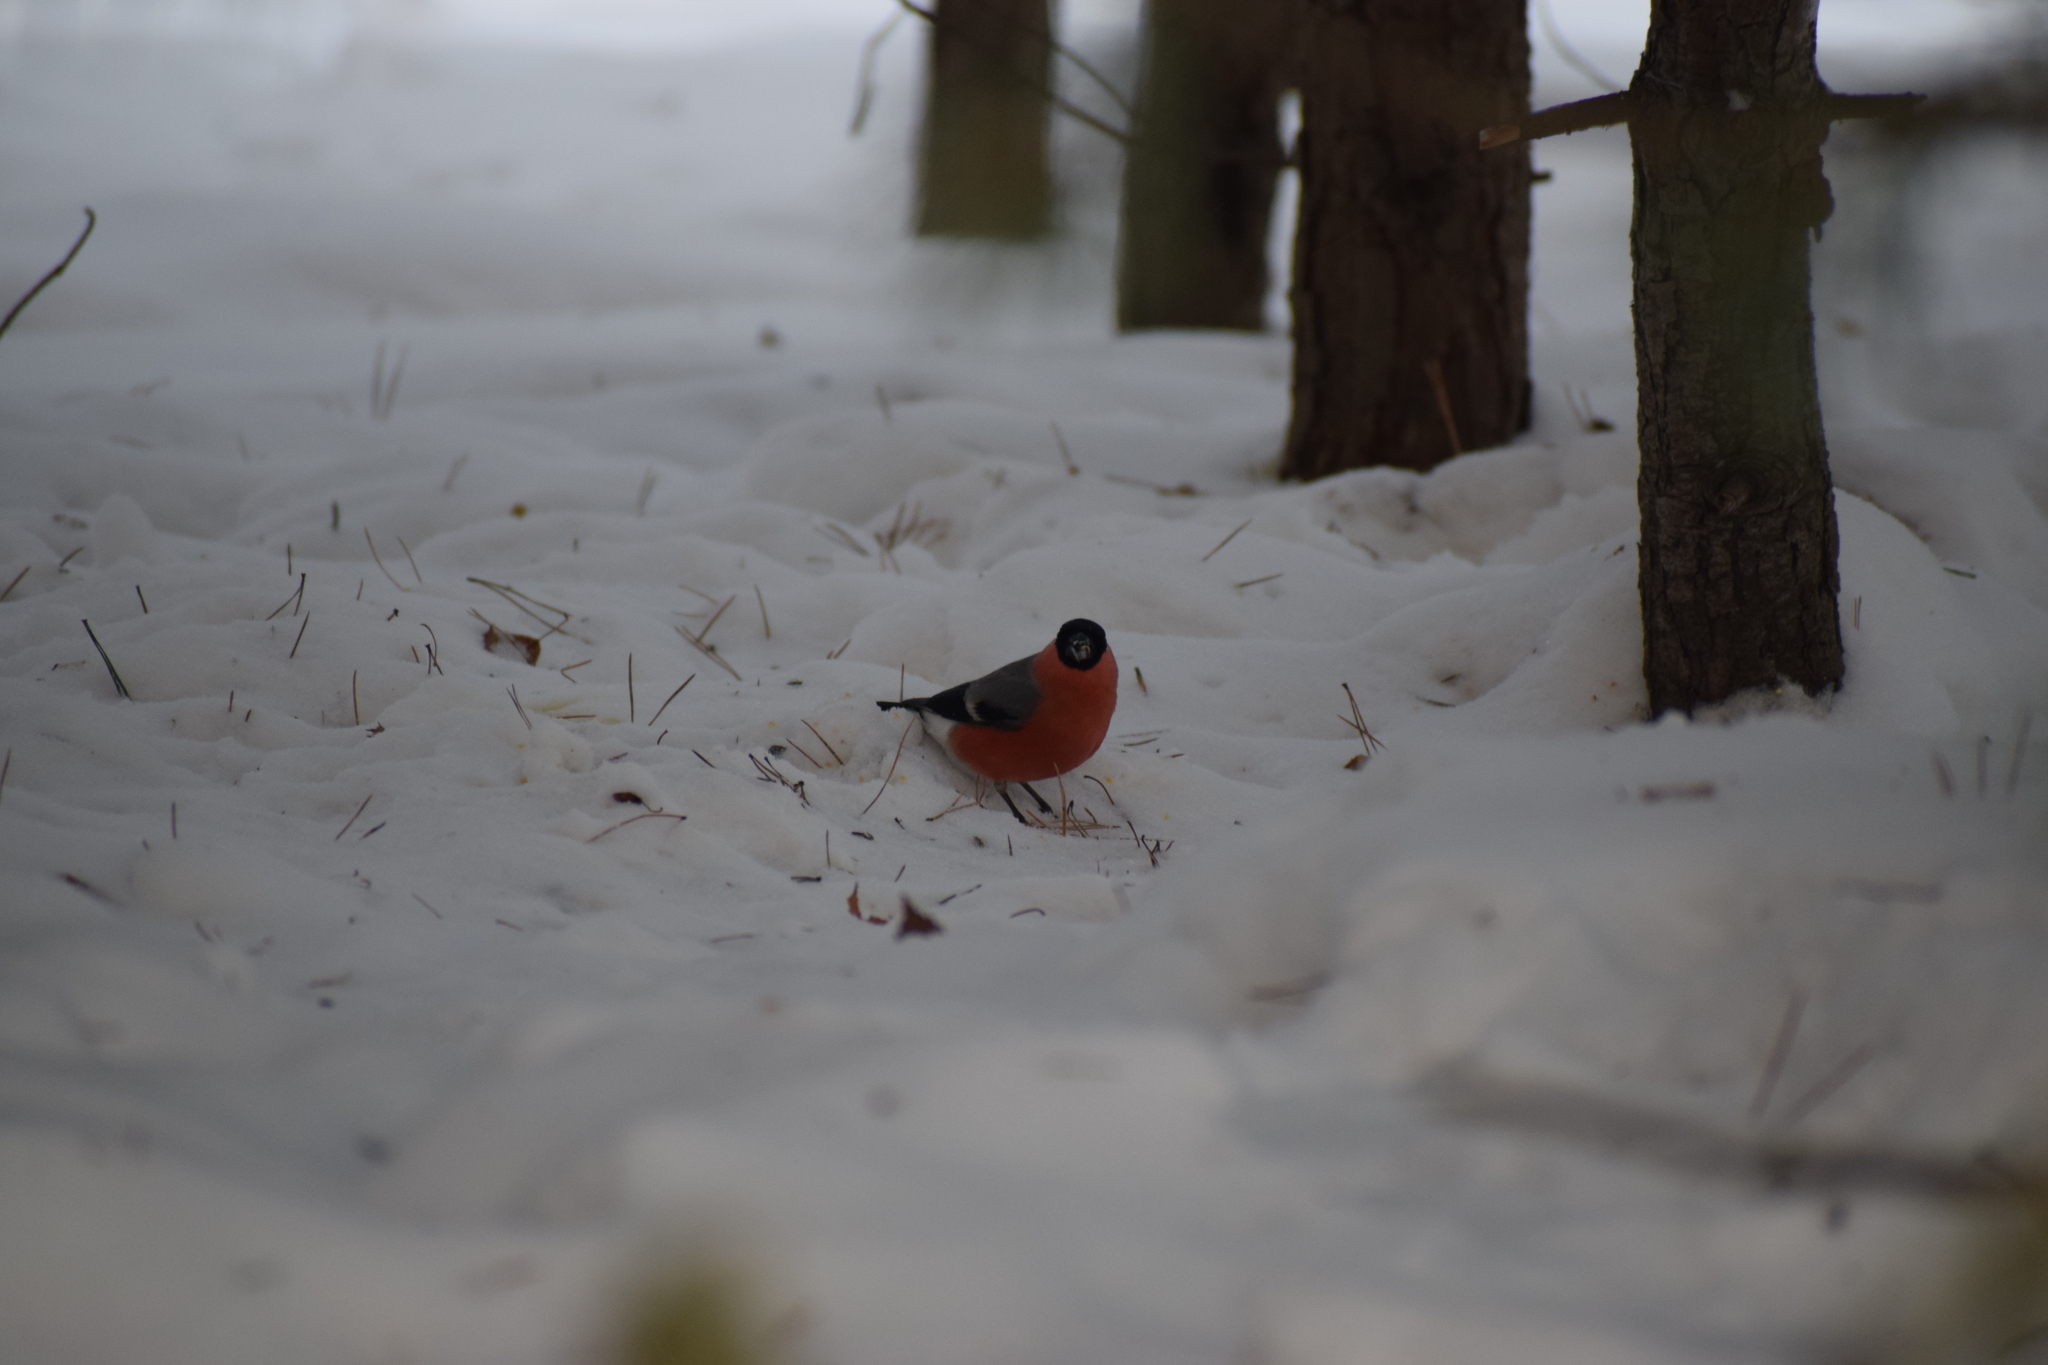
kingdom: Animalia
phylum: Chordata
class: Aves
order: Passeriformes
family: Fringillidae
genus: Pyrrhula
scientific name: Pyrrhula pyrrhula
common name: Eurasian bullfinch
